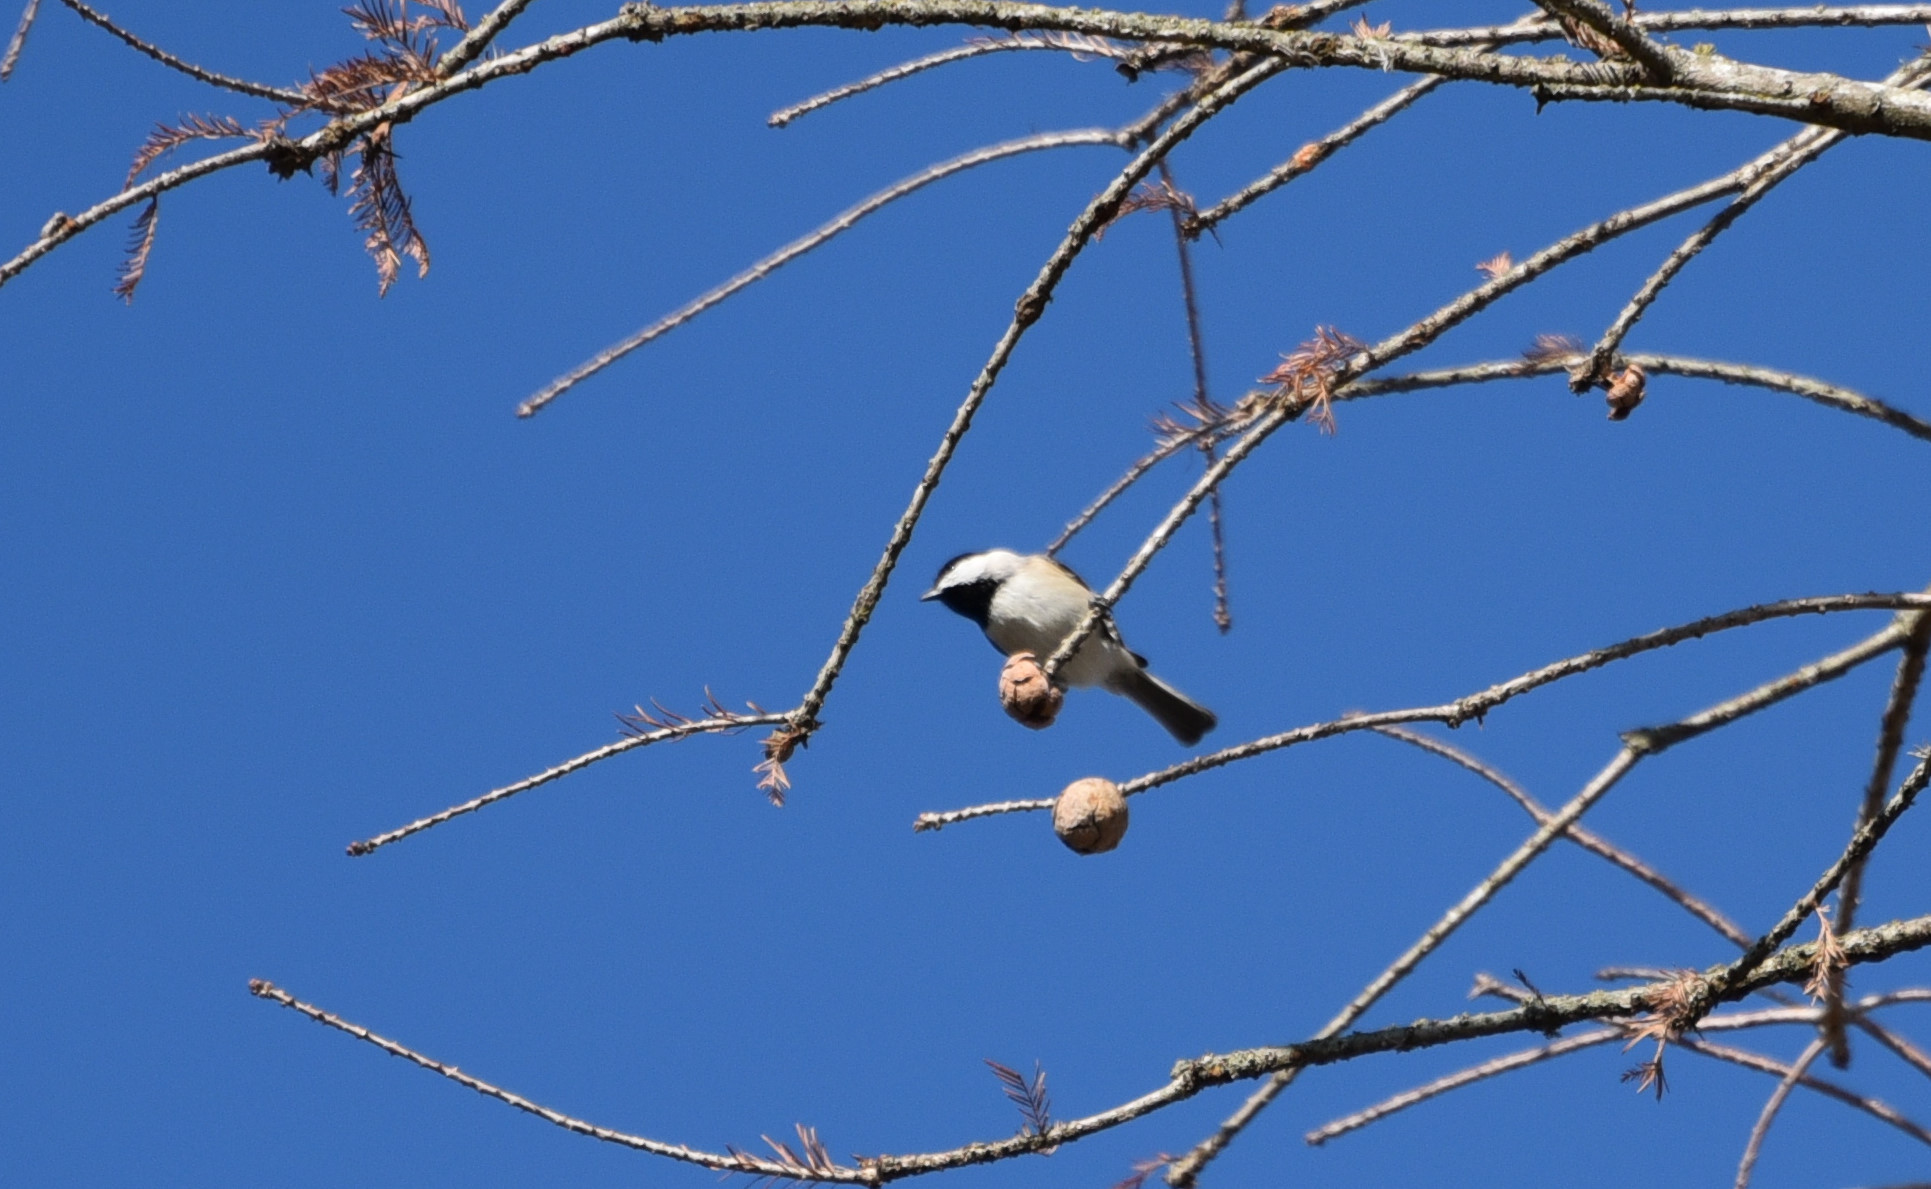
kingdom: Animalia
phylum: Chordata
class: Aves
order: Passeriformes
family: Paridae
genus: Poecile
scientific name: Poecile carolinensis
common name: Carolina chickadee
